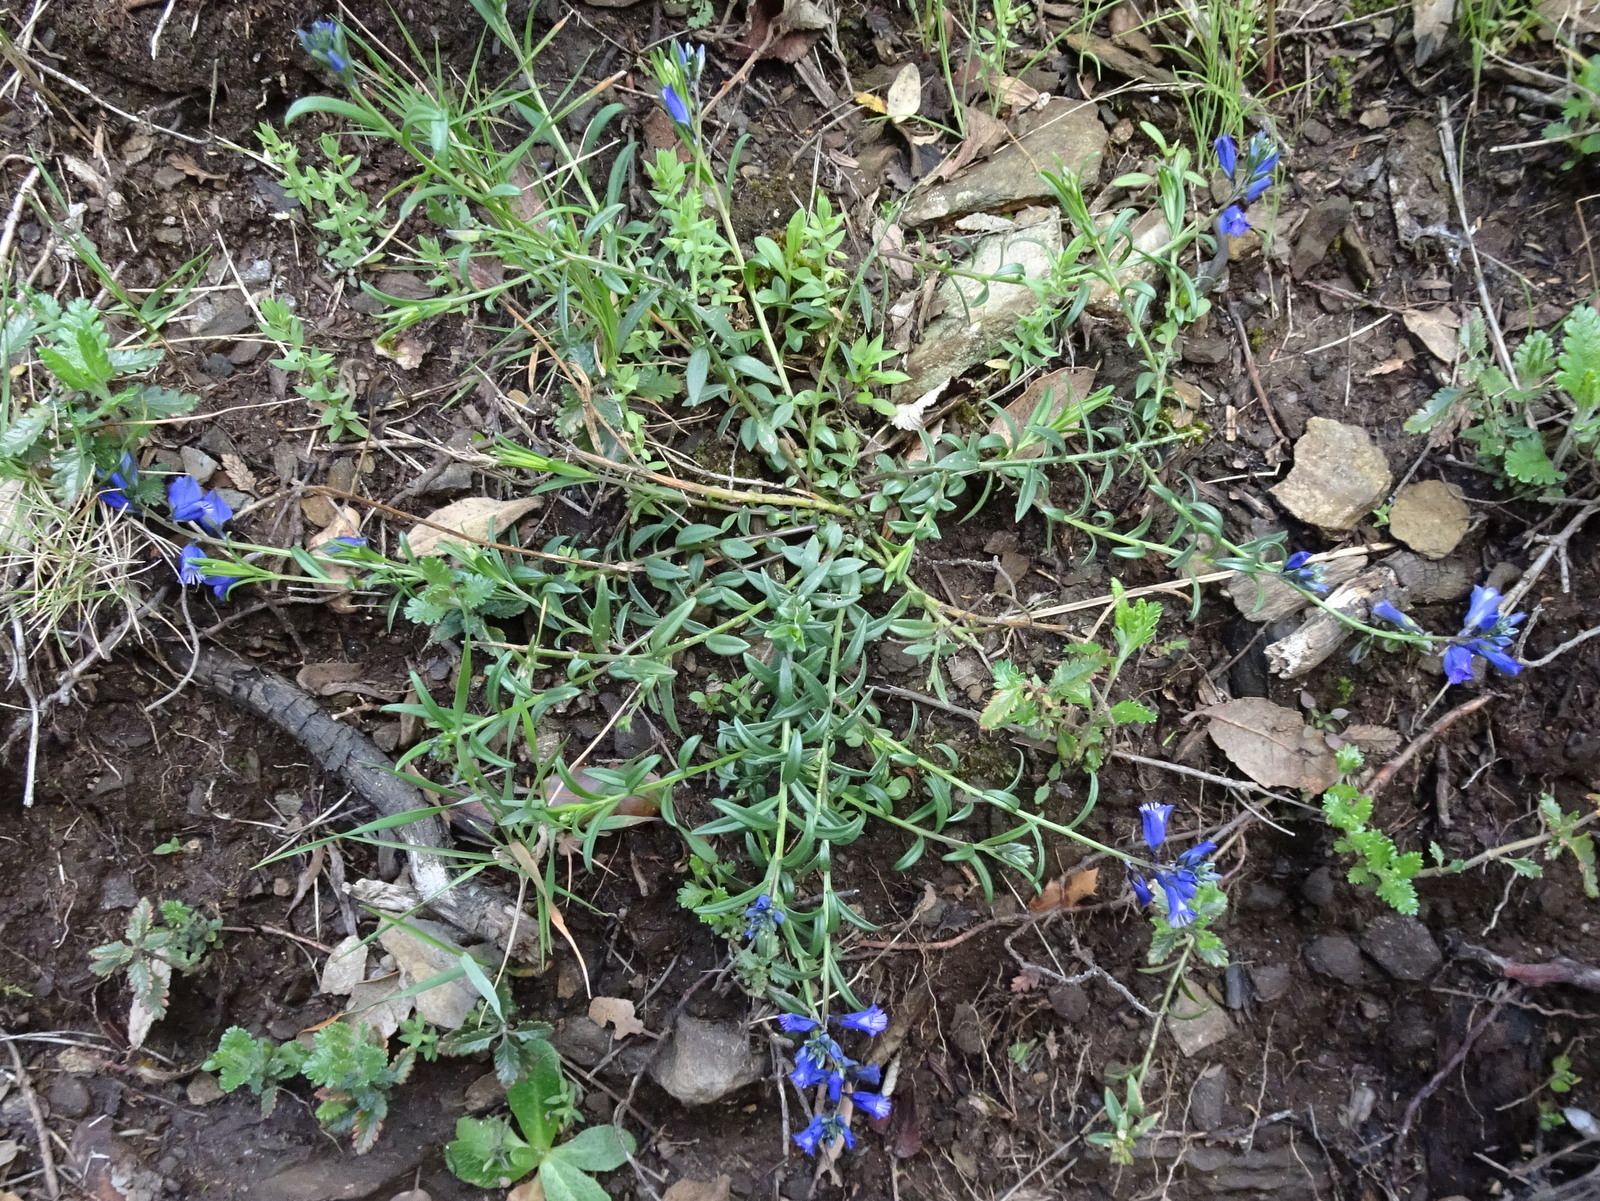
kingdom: Plantae
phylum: Tracheophyta
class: Magnoliopsida
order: Fabales
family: Polygalaceae
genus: Polygala
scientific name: Polygala vulgaris
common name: Common milkwort
